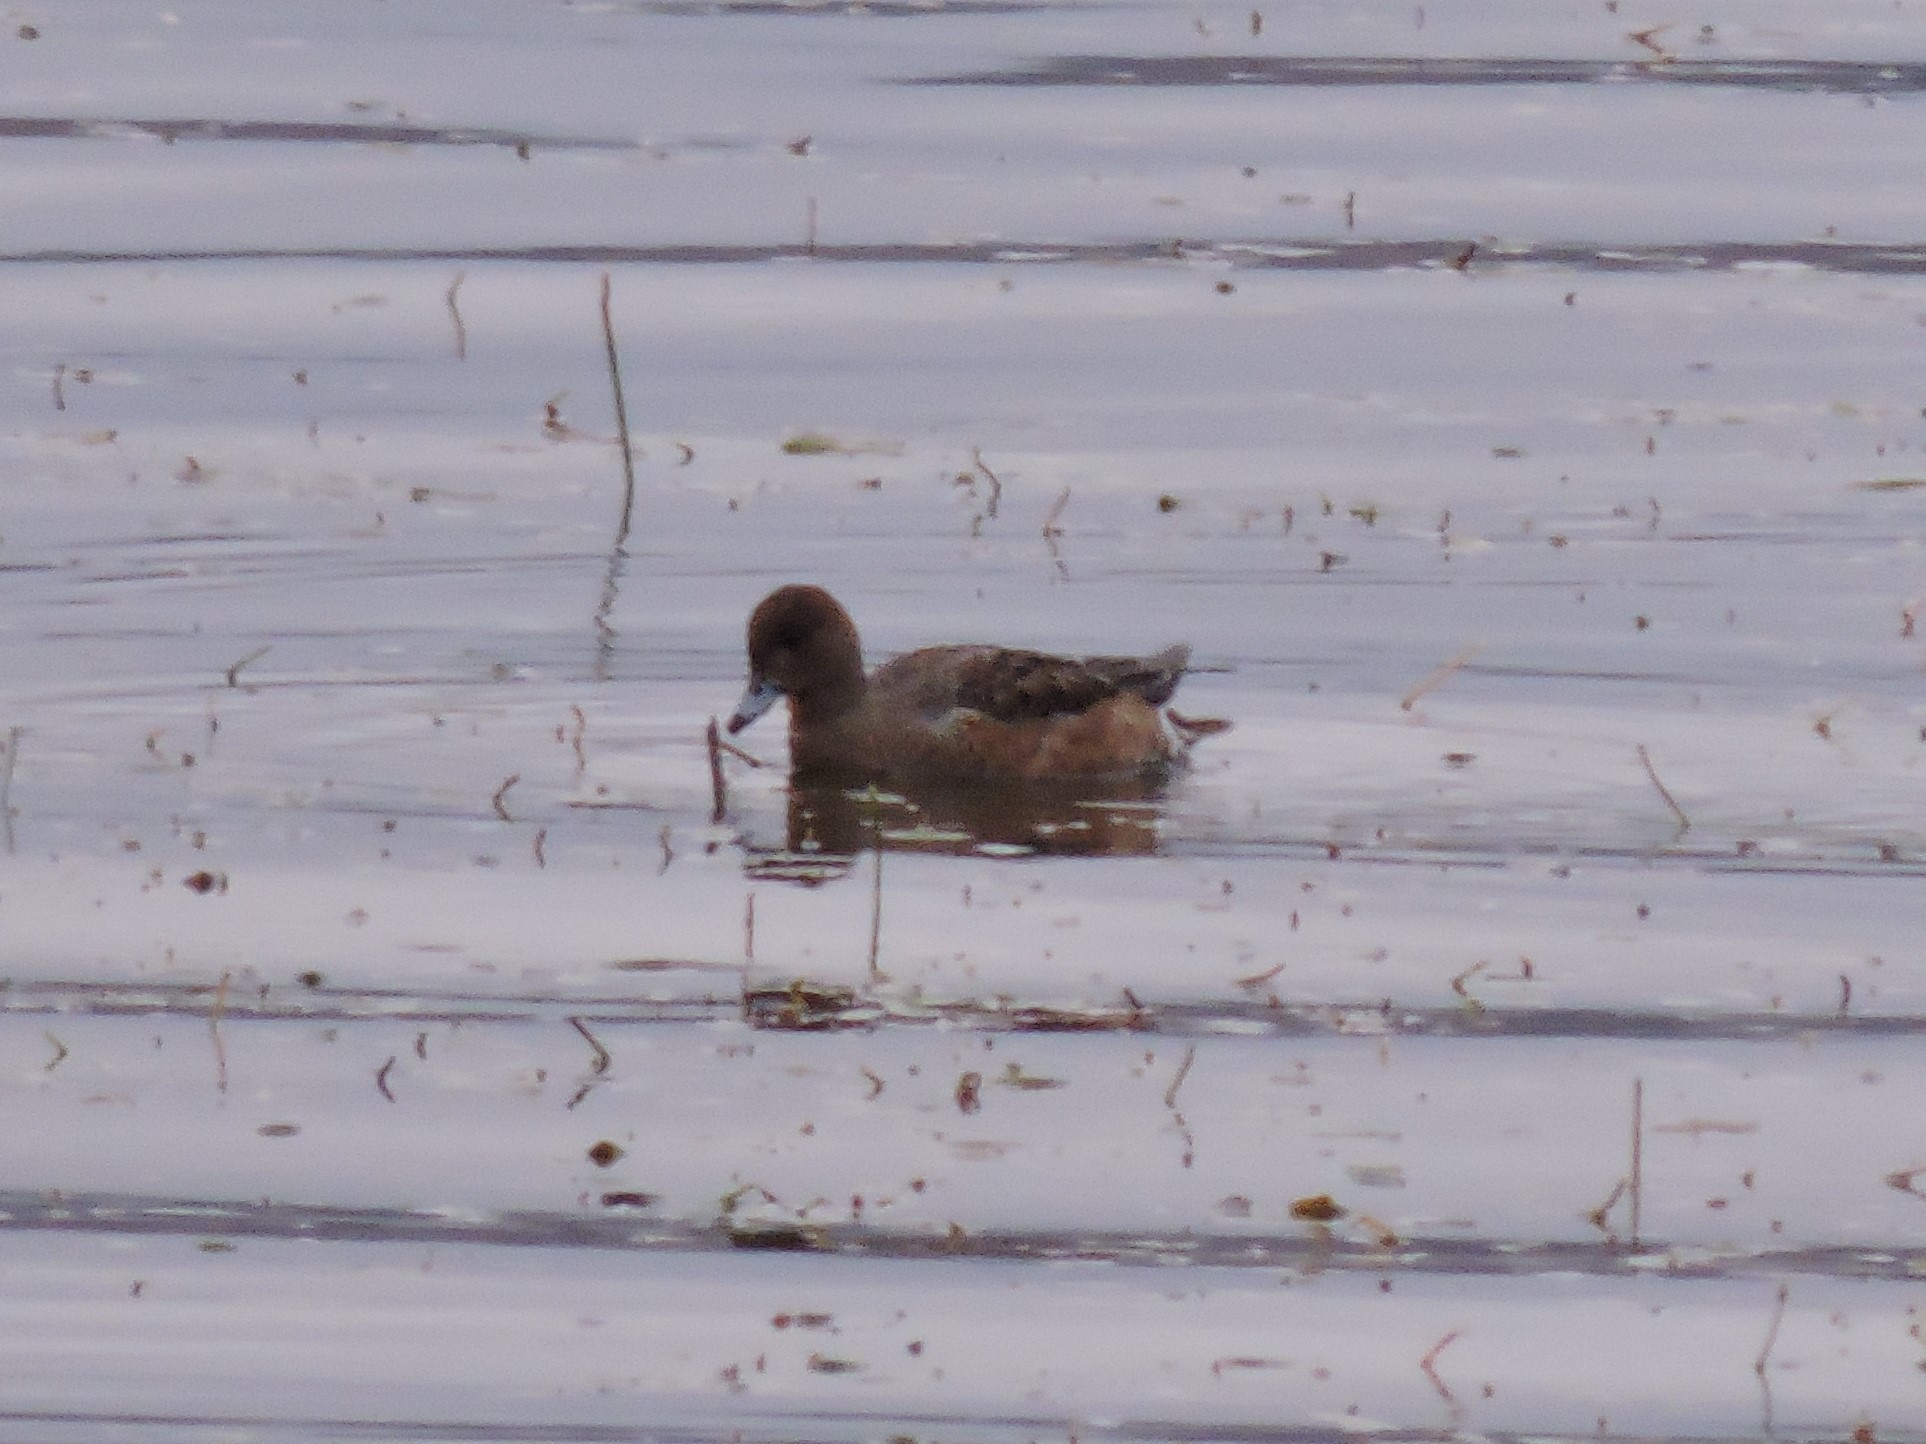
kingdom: Animalia
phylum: Chordata
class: Aves
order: Anseriformes
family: Anatidae
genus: Mareca
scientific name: Mareca penelope
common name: Eurasian wigeon
